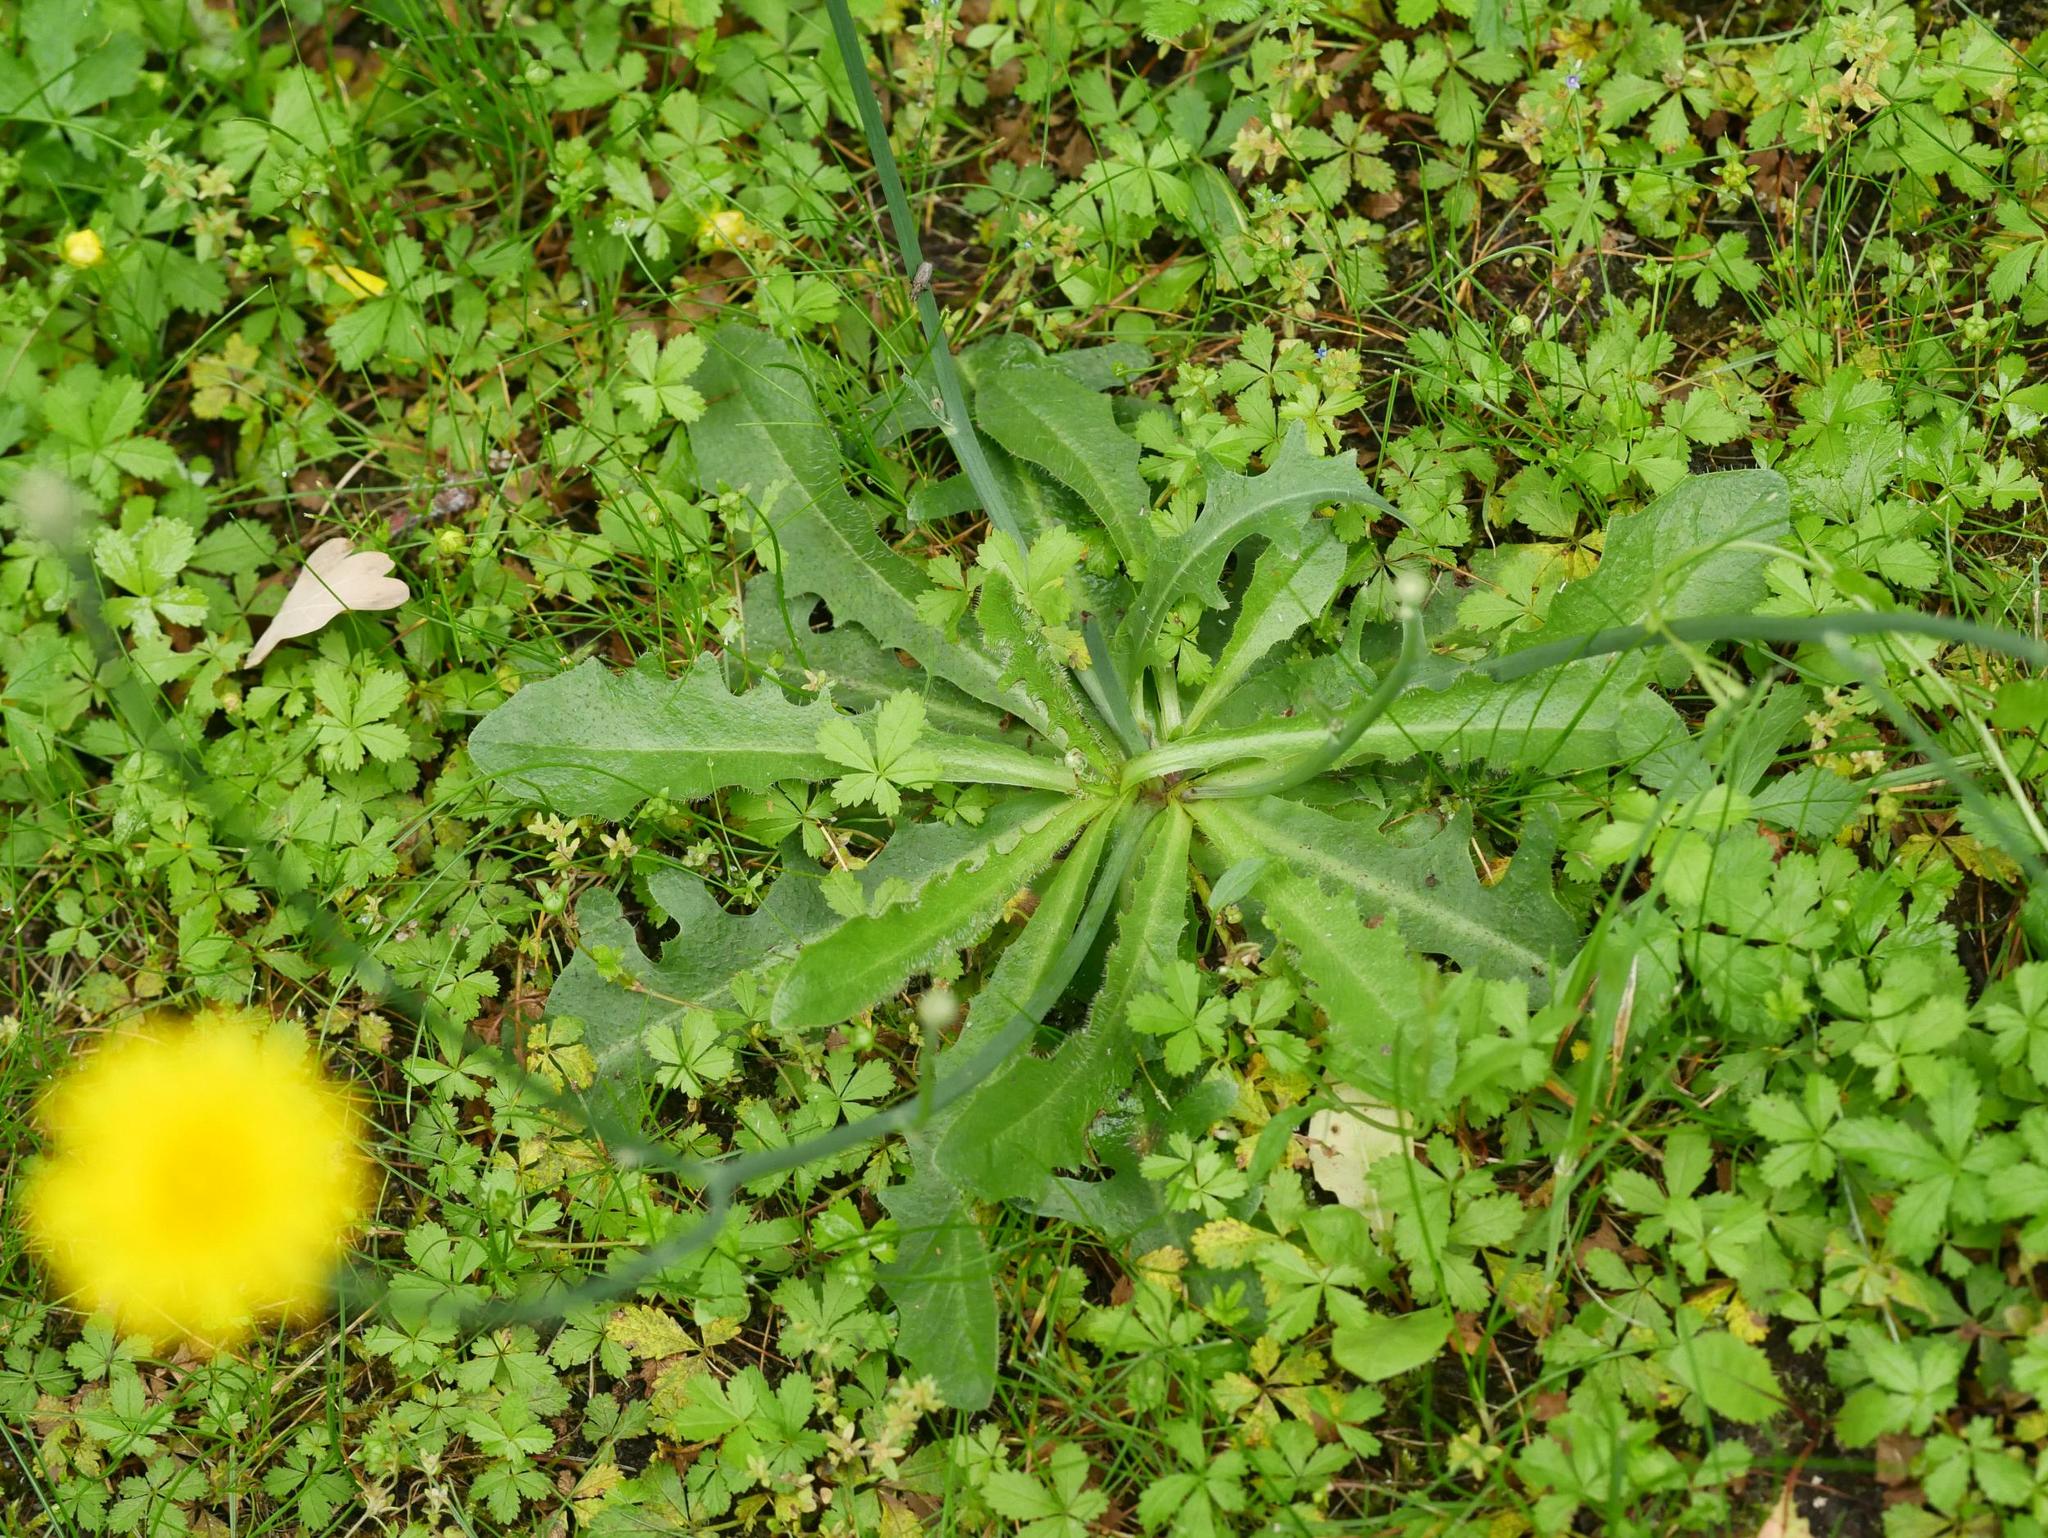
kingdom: Plantae
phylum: Tracheophyta
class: Magnoliopsida
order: Asterales
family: Asteraceae
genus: Hypochaeris
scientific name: Hypochaeris radicata
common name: Flatweed
